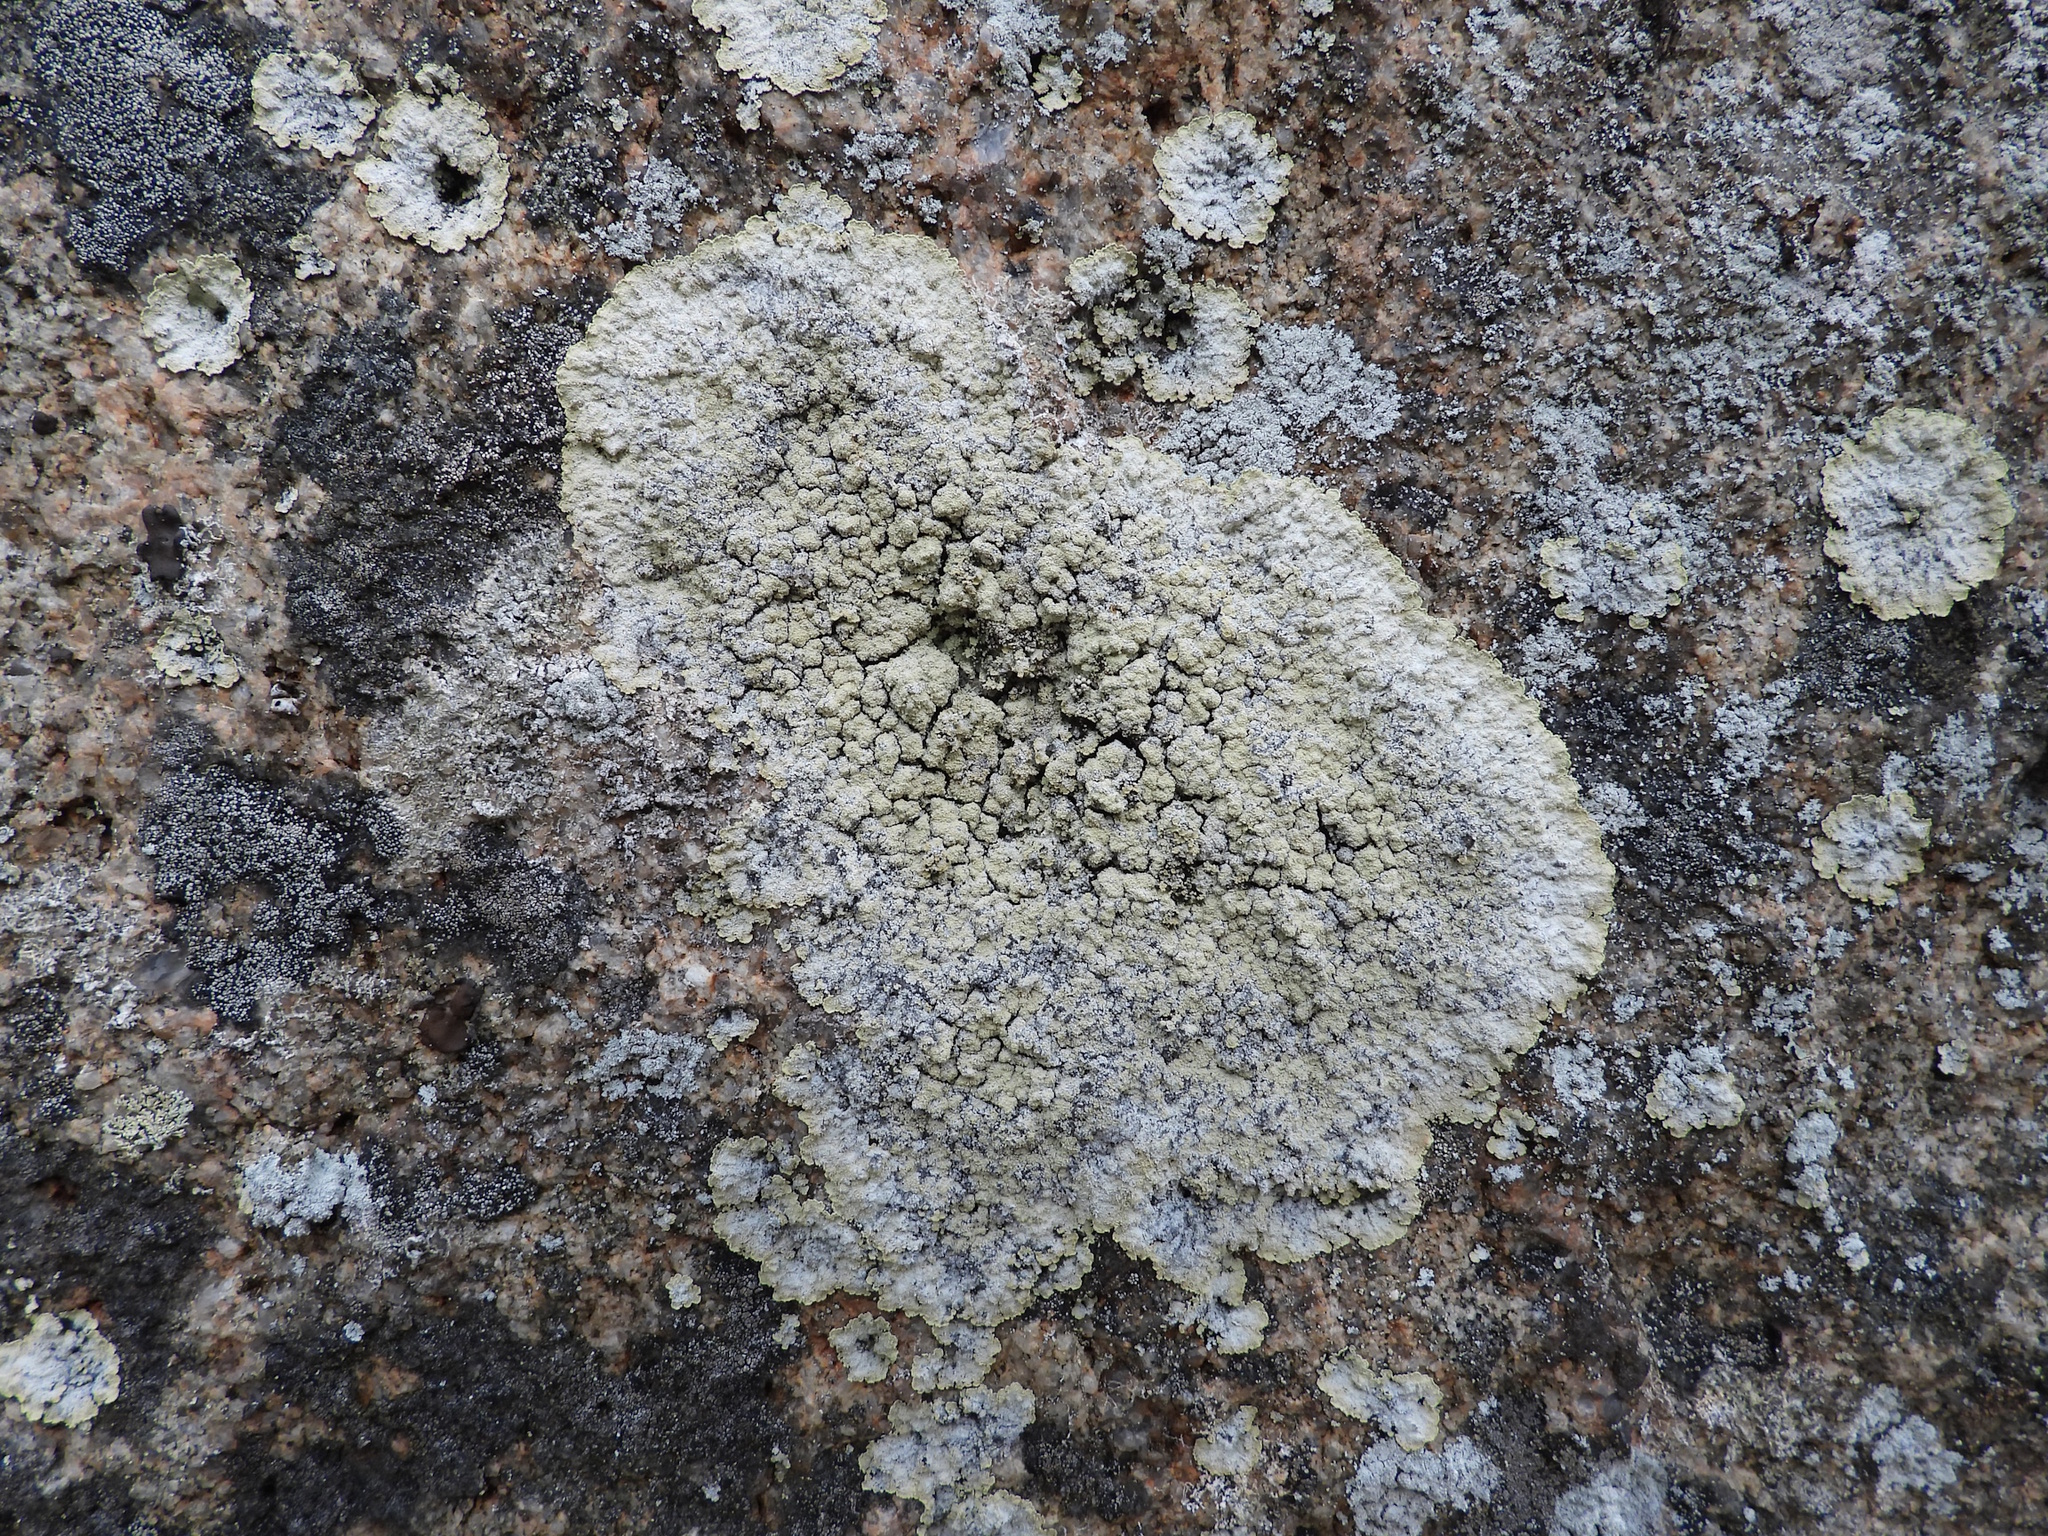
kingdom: Fungi
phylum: Ascomycota
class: Lecanoromycetes
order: Lecanorales
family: Stereocaulaceae
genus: Lepraria
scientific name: Lepraria membranacea
